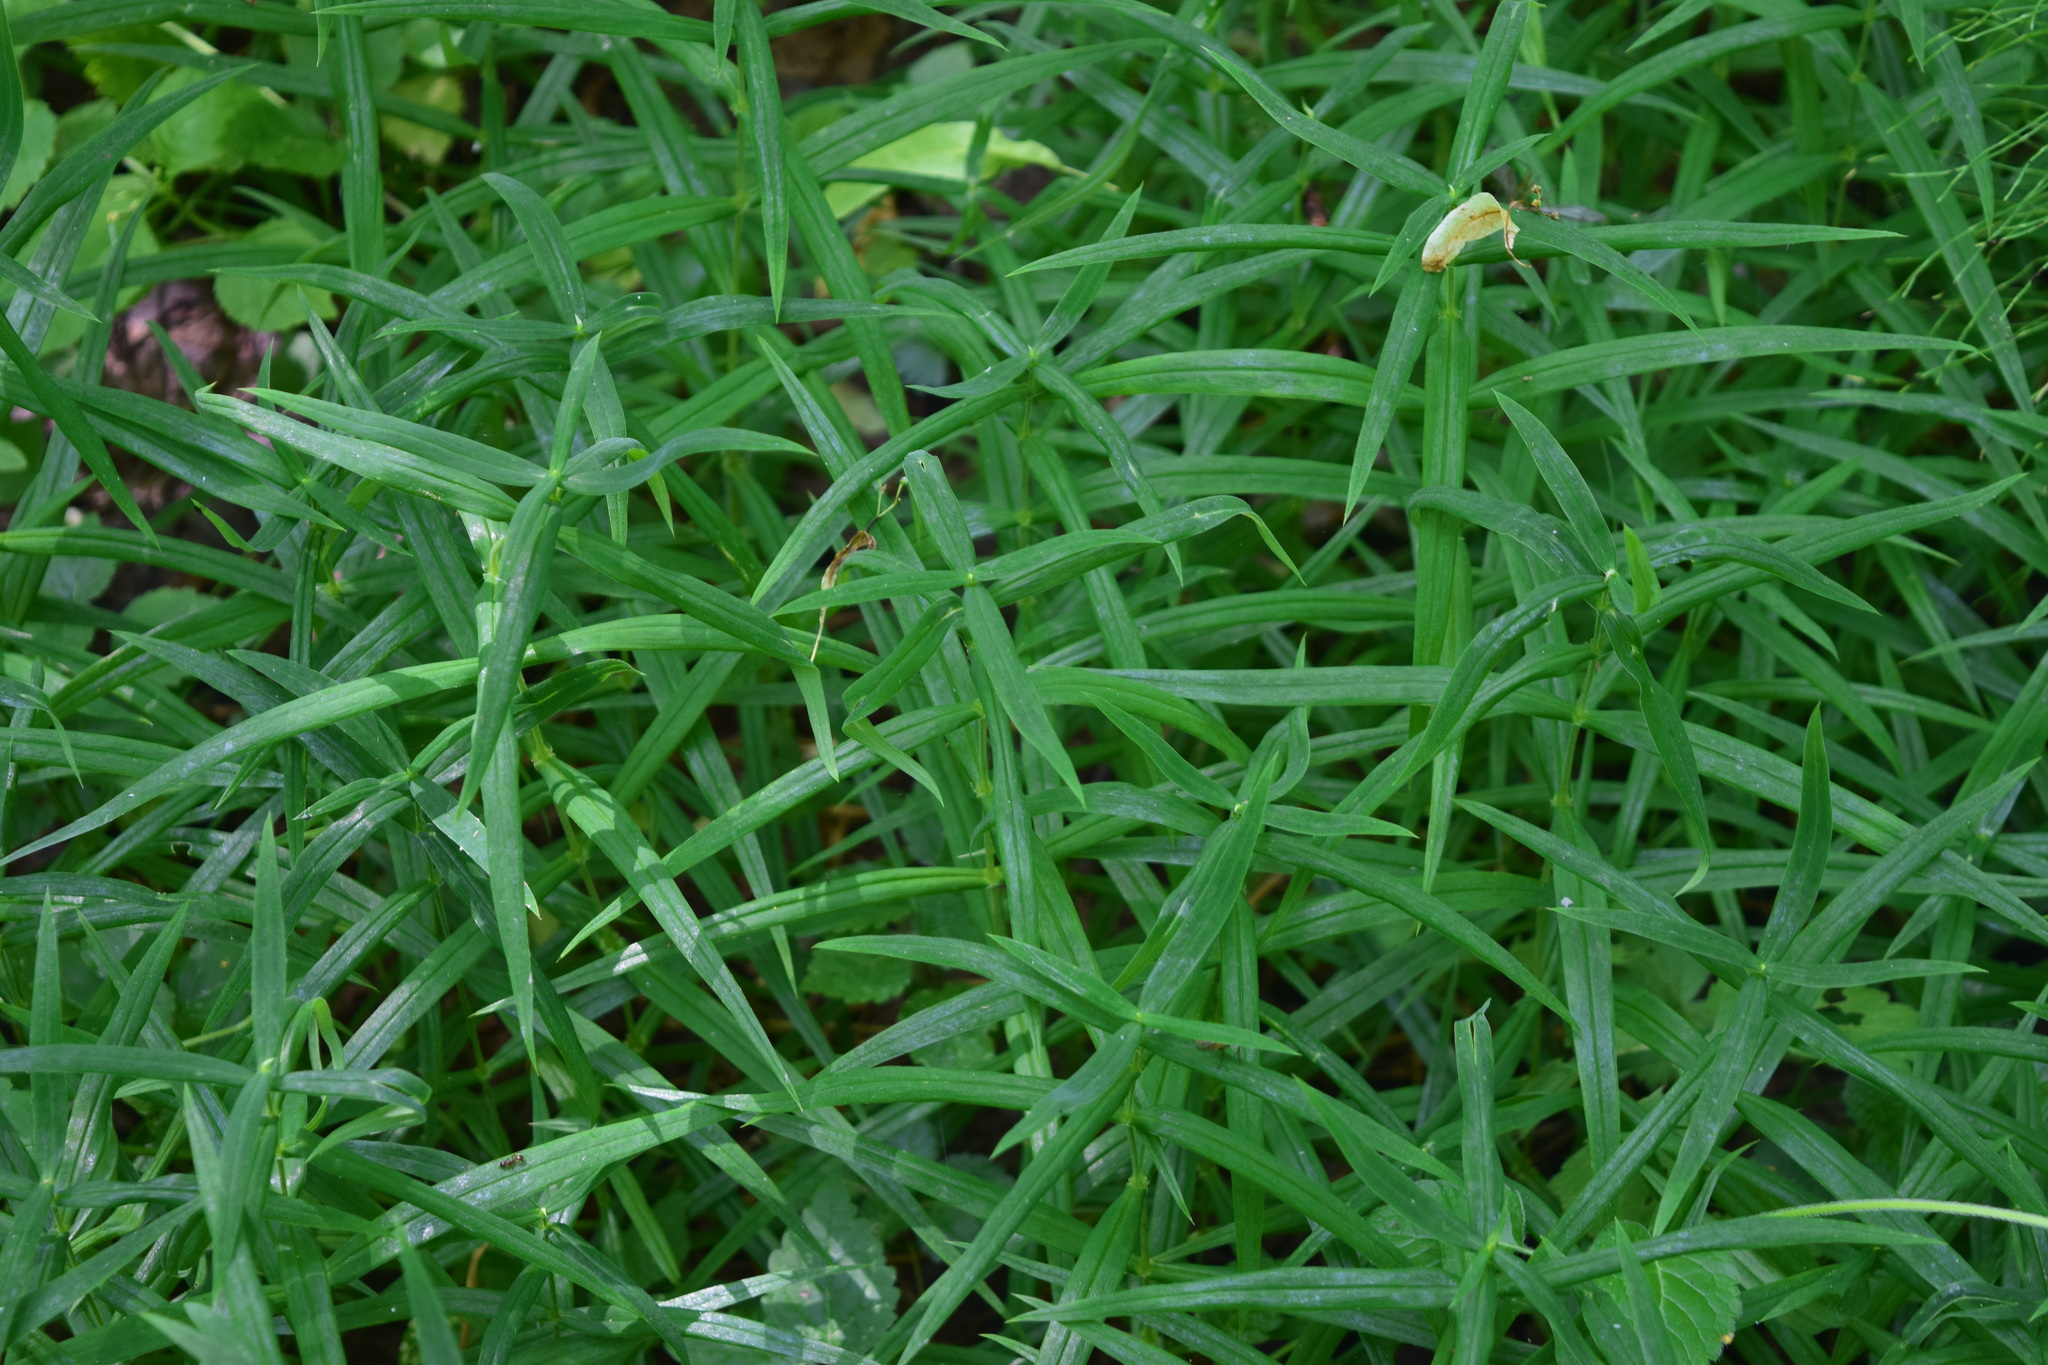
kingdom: Plantae
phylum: Tracheophyta
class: Magnoliopsida
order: Caryophyllales
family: Caryophyllaceae
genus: Rabelera
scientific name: Rabelera holostea
